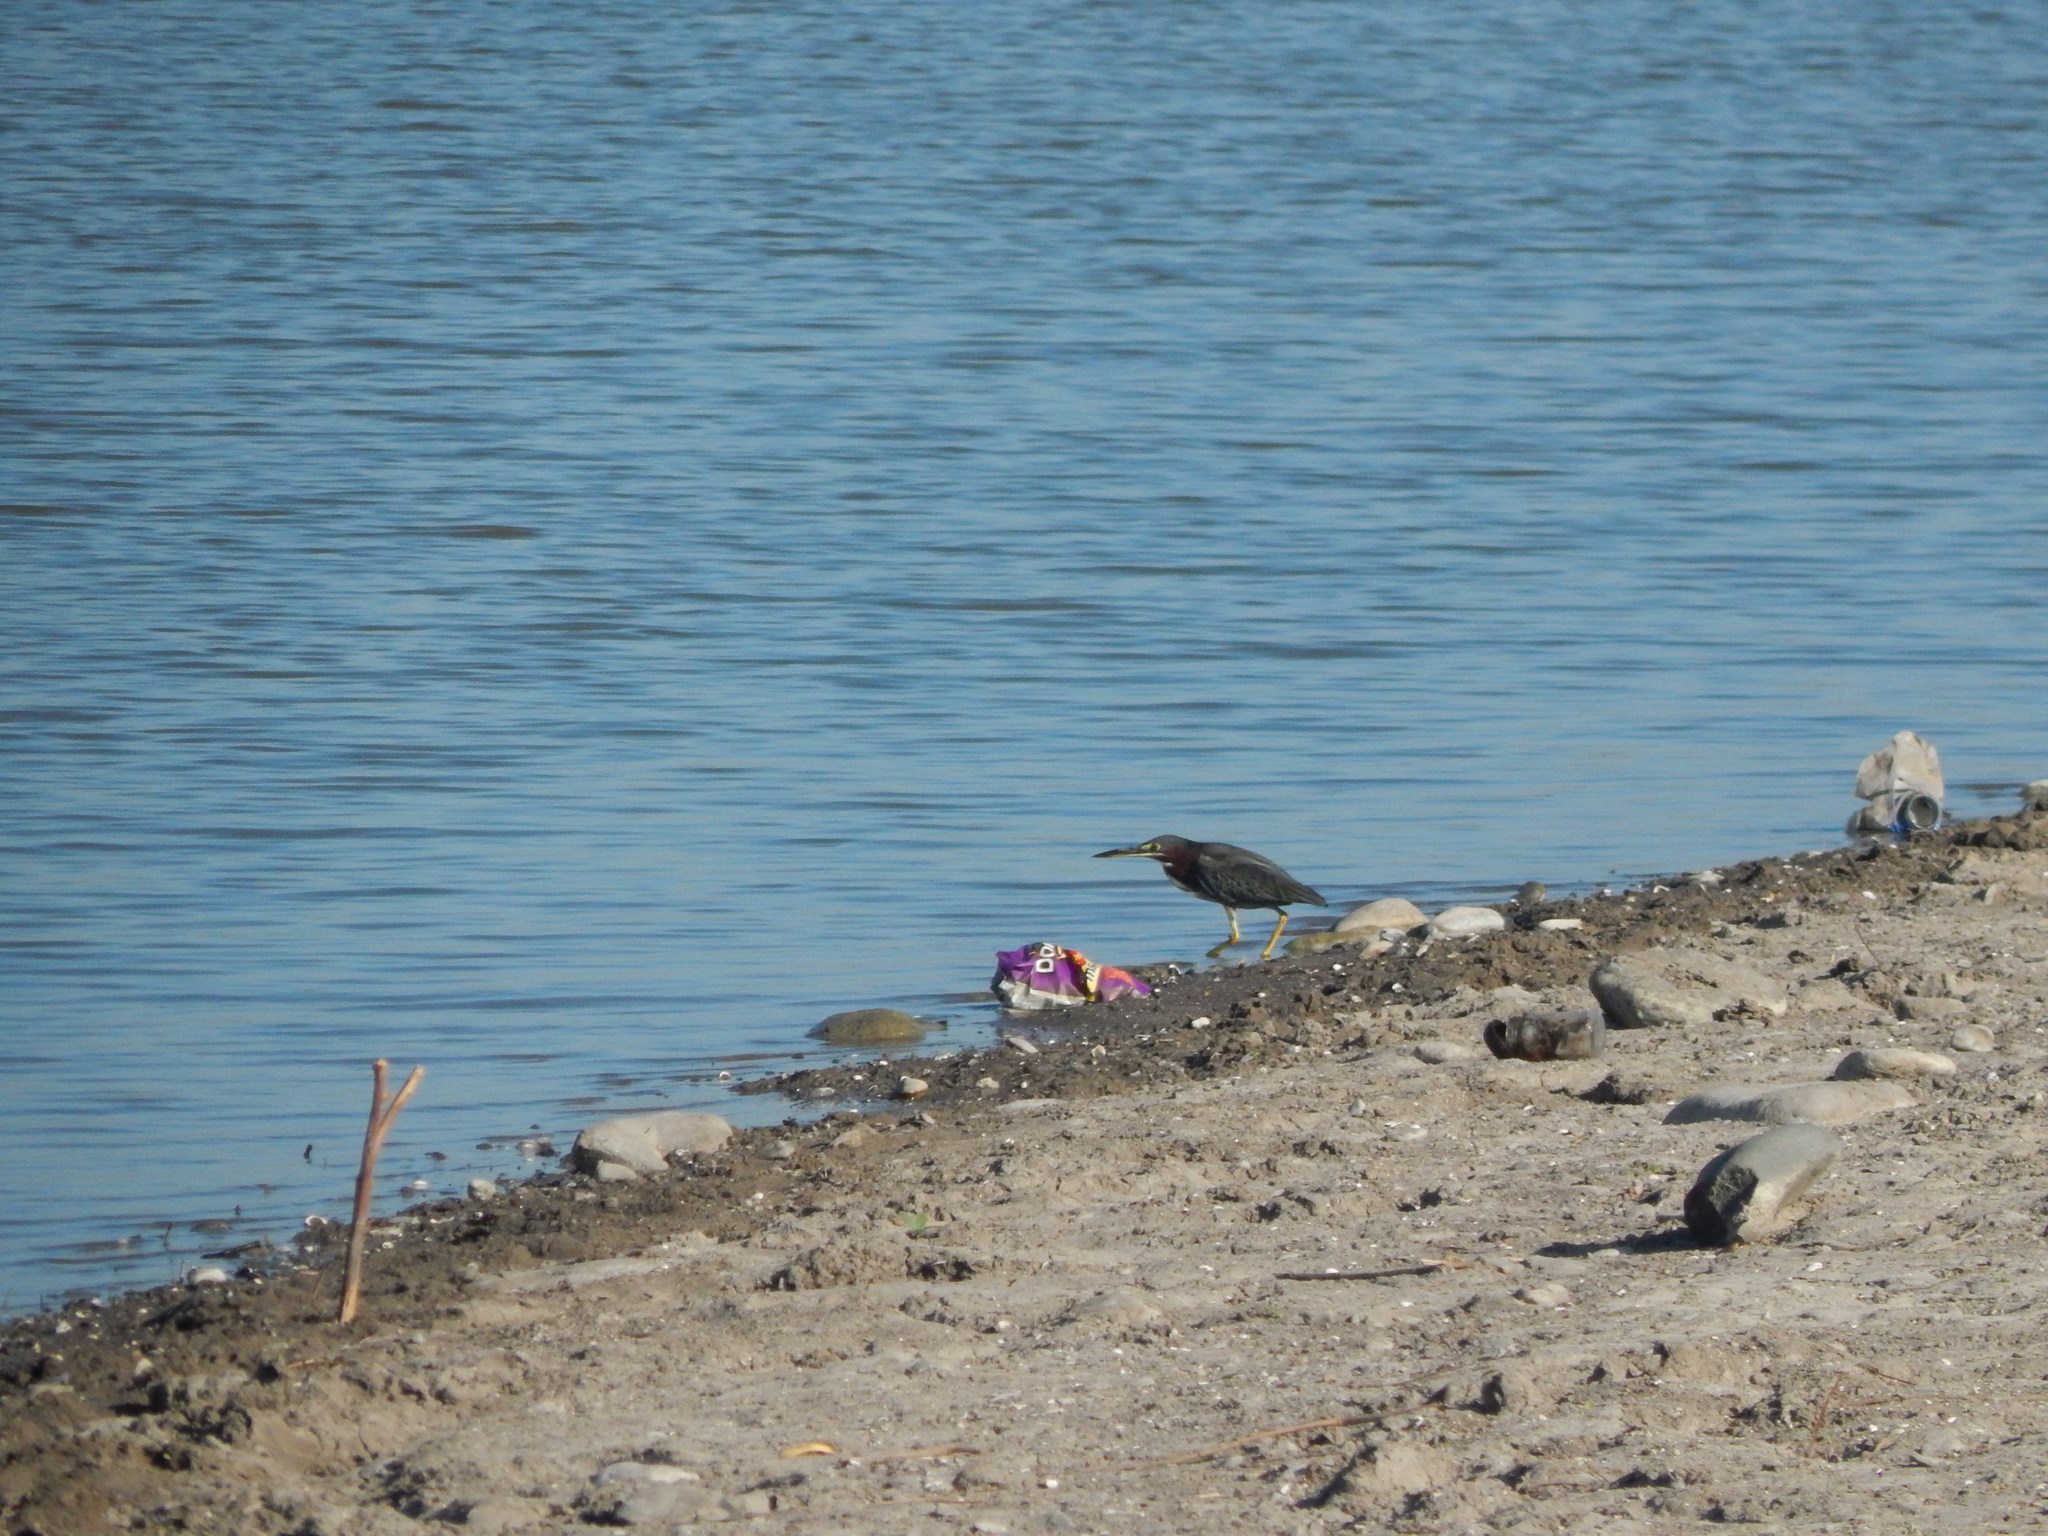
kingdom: Animalia
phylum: Chordata
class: Aves
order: Pelecaniformes
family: Ardeidae
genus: Butorides
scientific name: Butorides virescens
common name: Green heron
